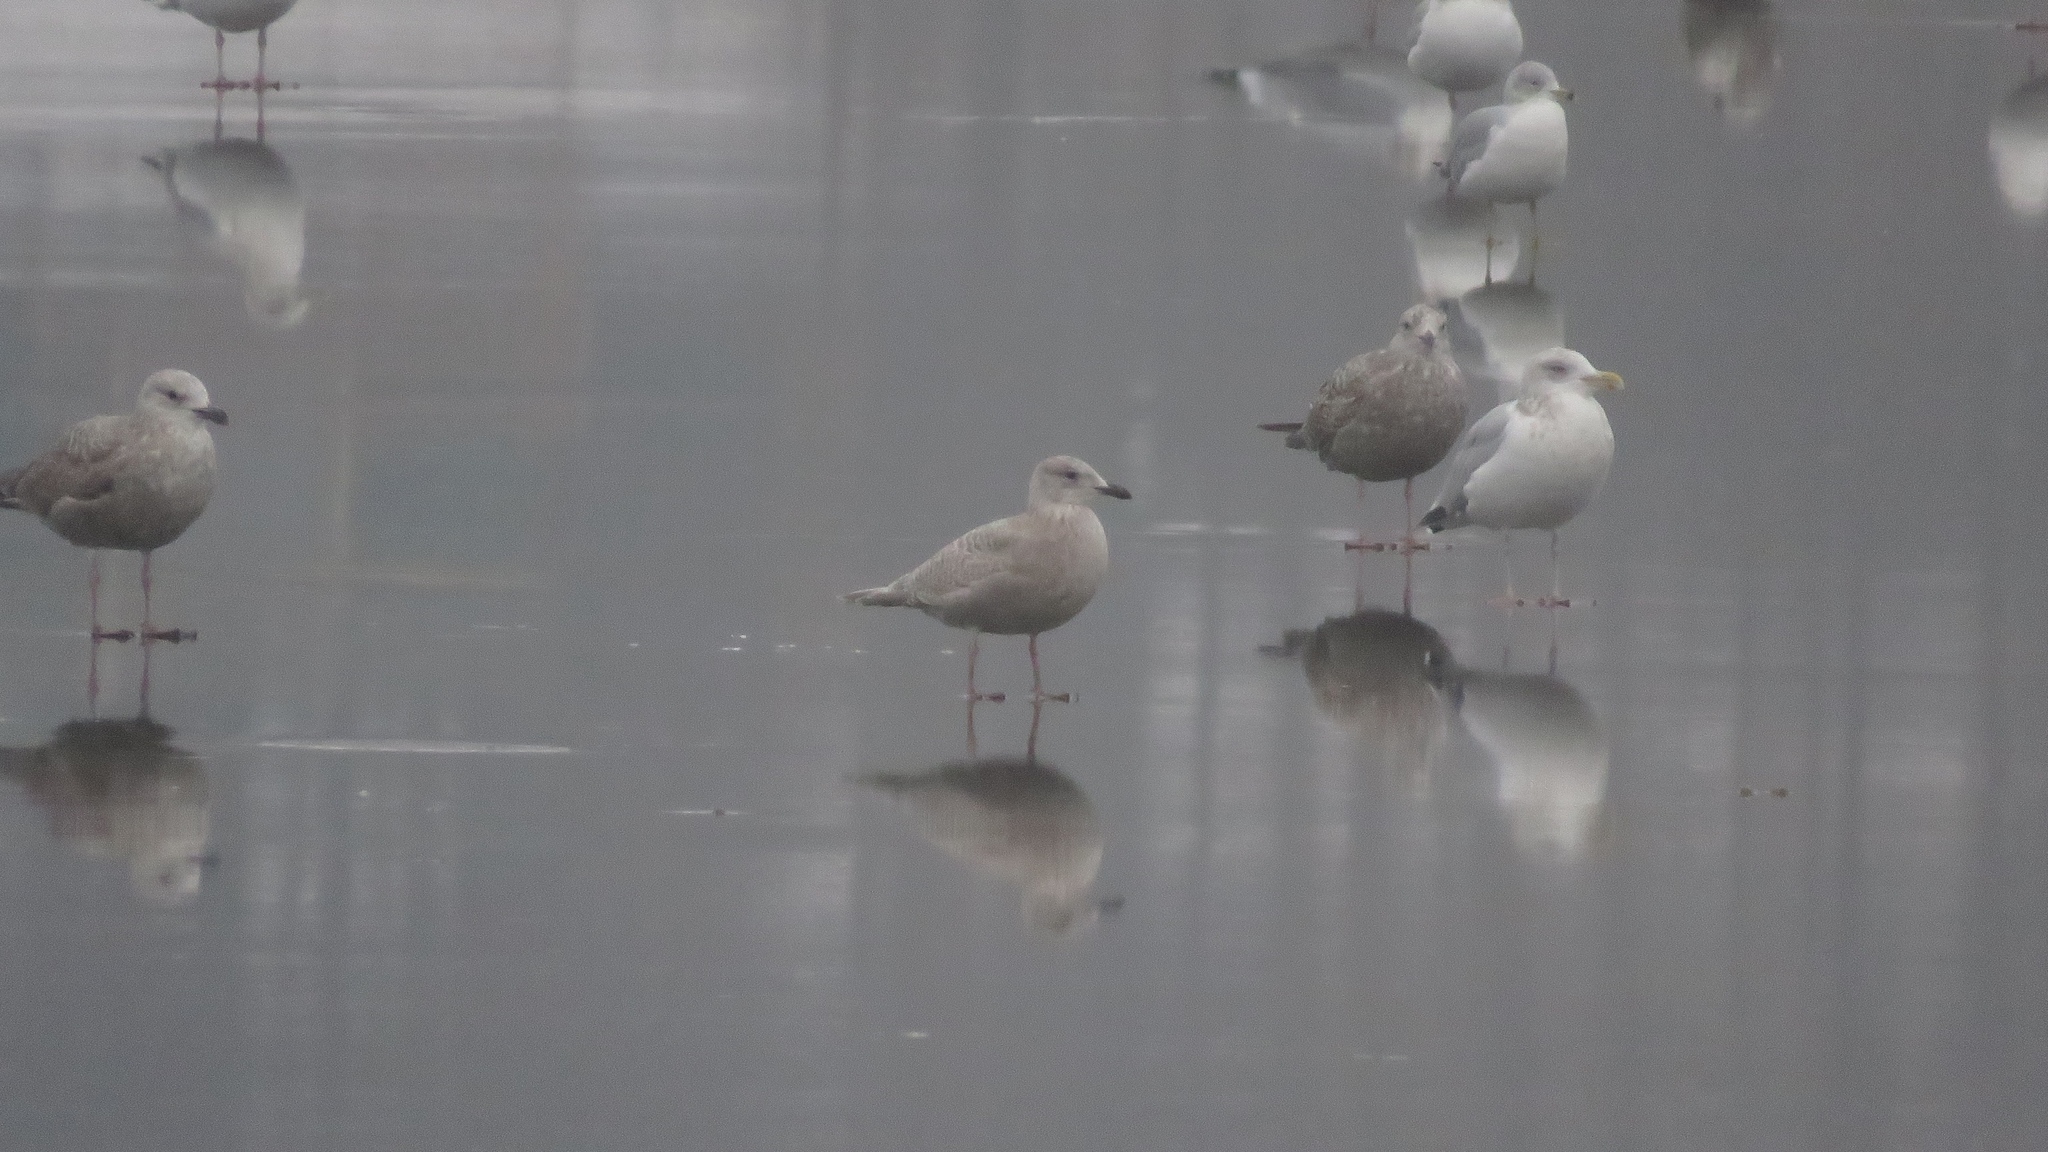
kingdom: Animalia
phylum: Chordata
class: Aves
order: Charadriiformes
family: Laridae
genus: Larus
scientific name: Larus glaucoides
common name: Iceland gull
